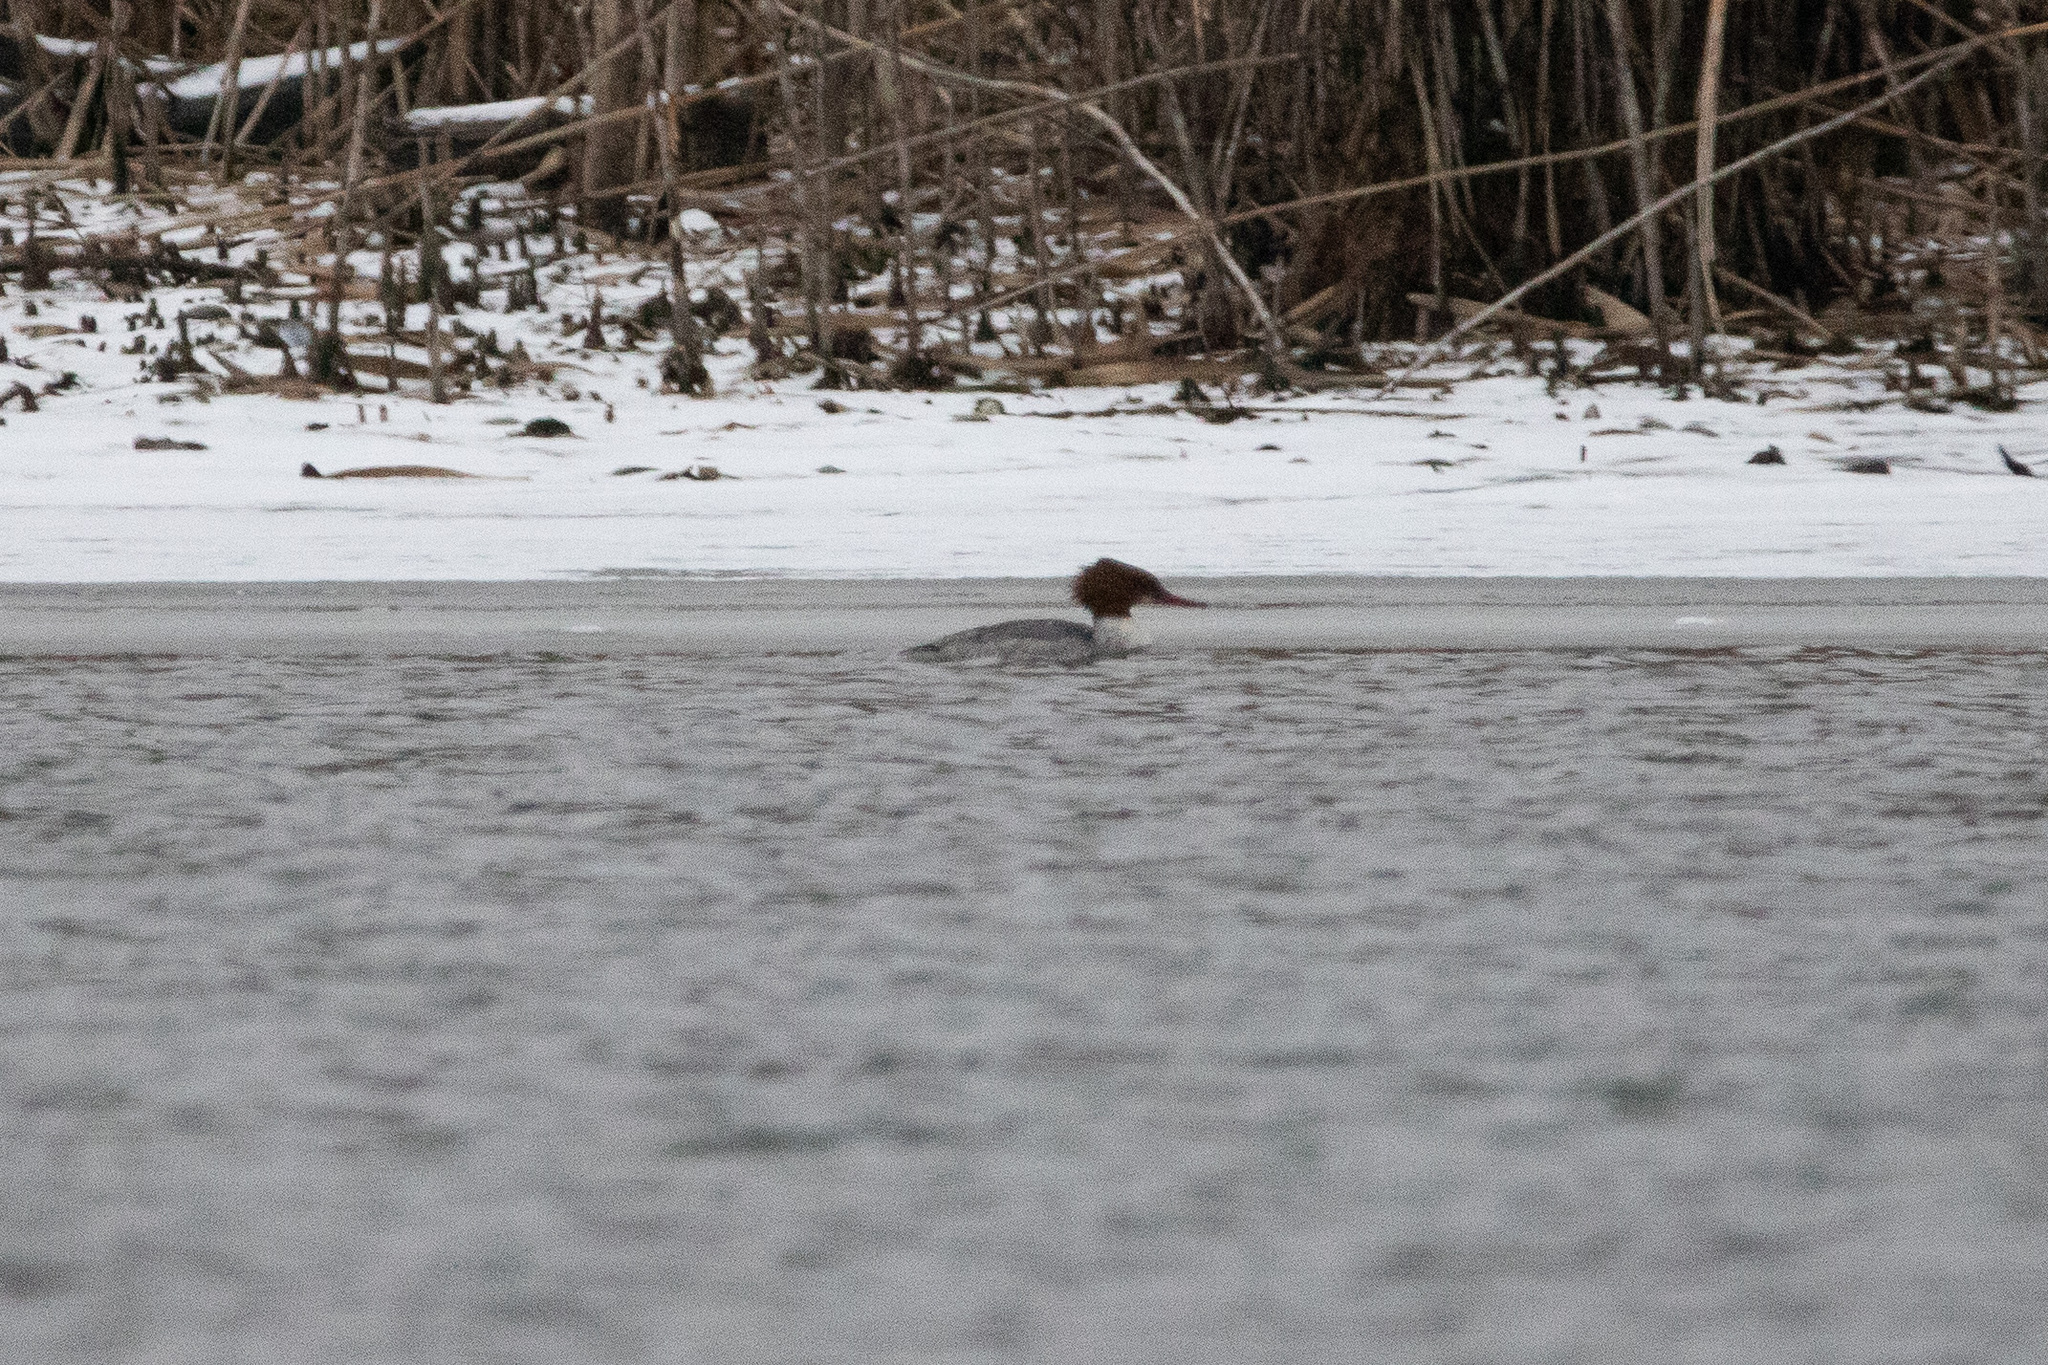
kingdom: Animalia
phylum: Chordata
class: Aves
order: Anseriformes
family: Anatidae
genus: Mergus
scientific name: Mergus merganser
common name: Common merganser
